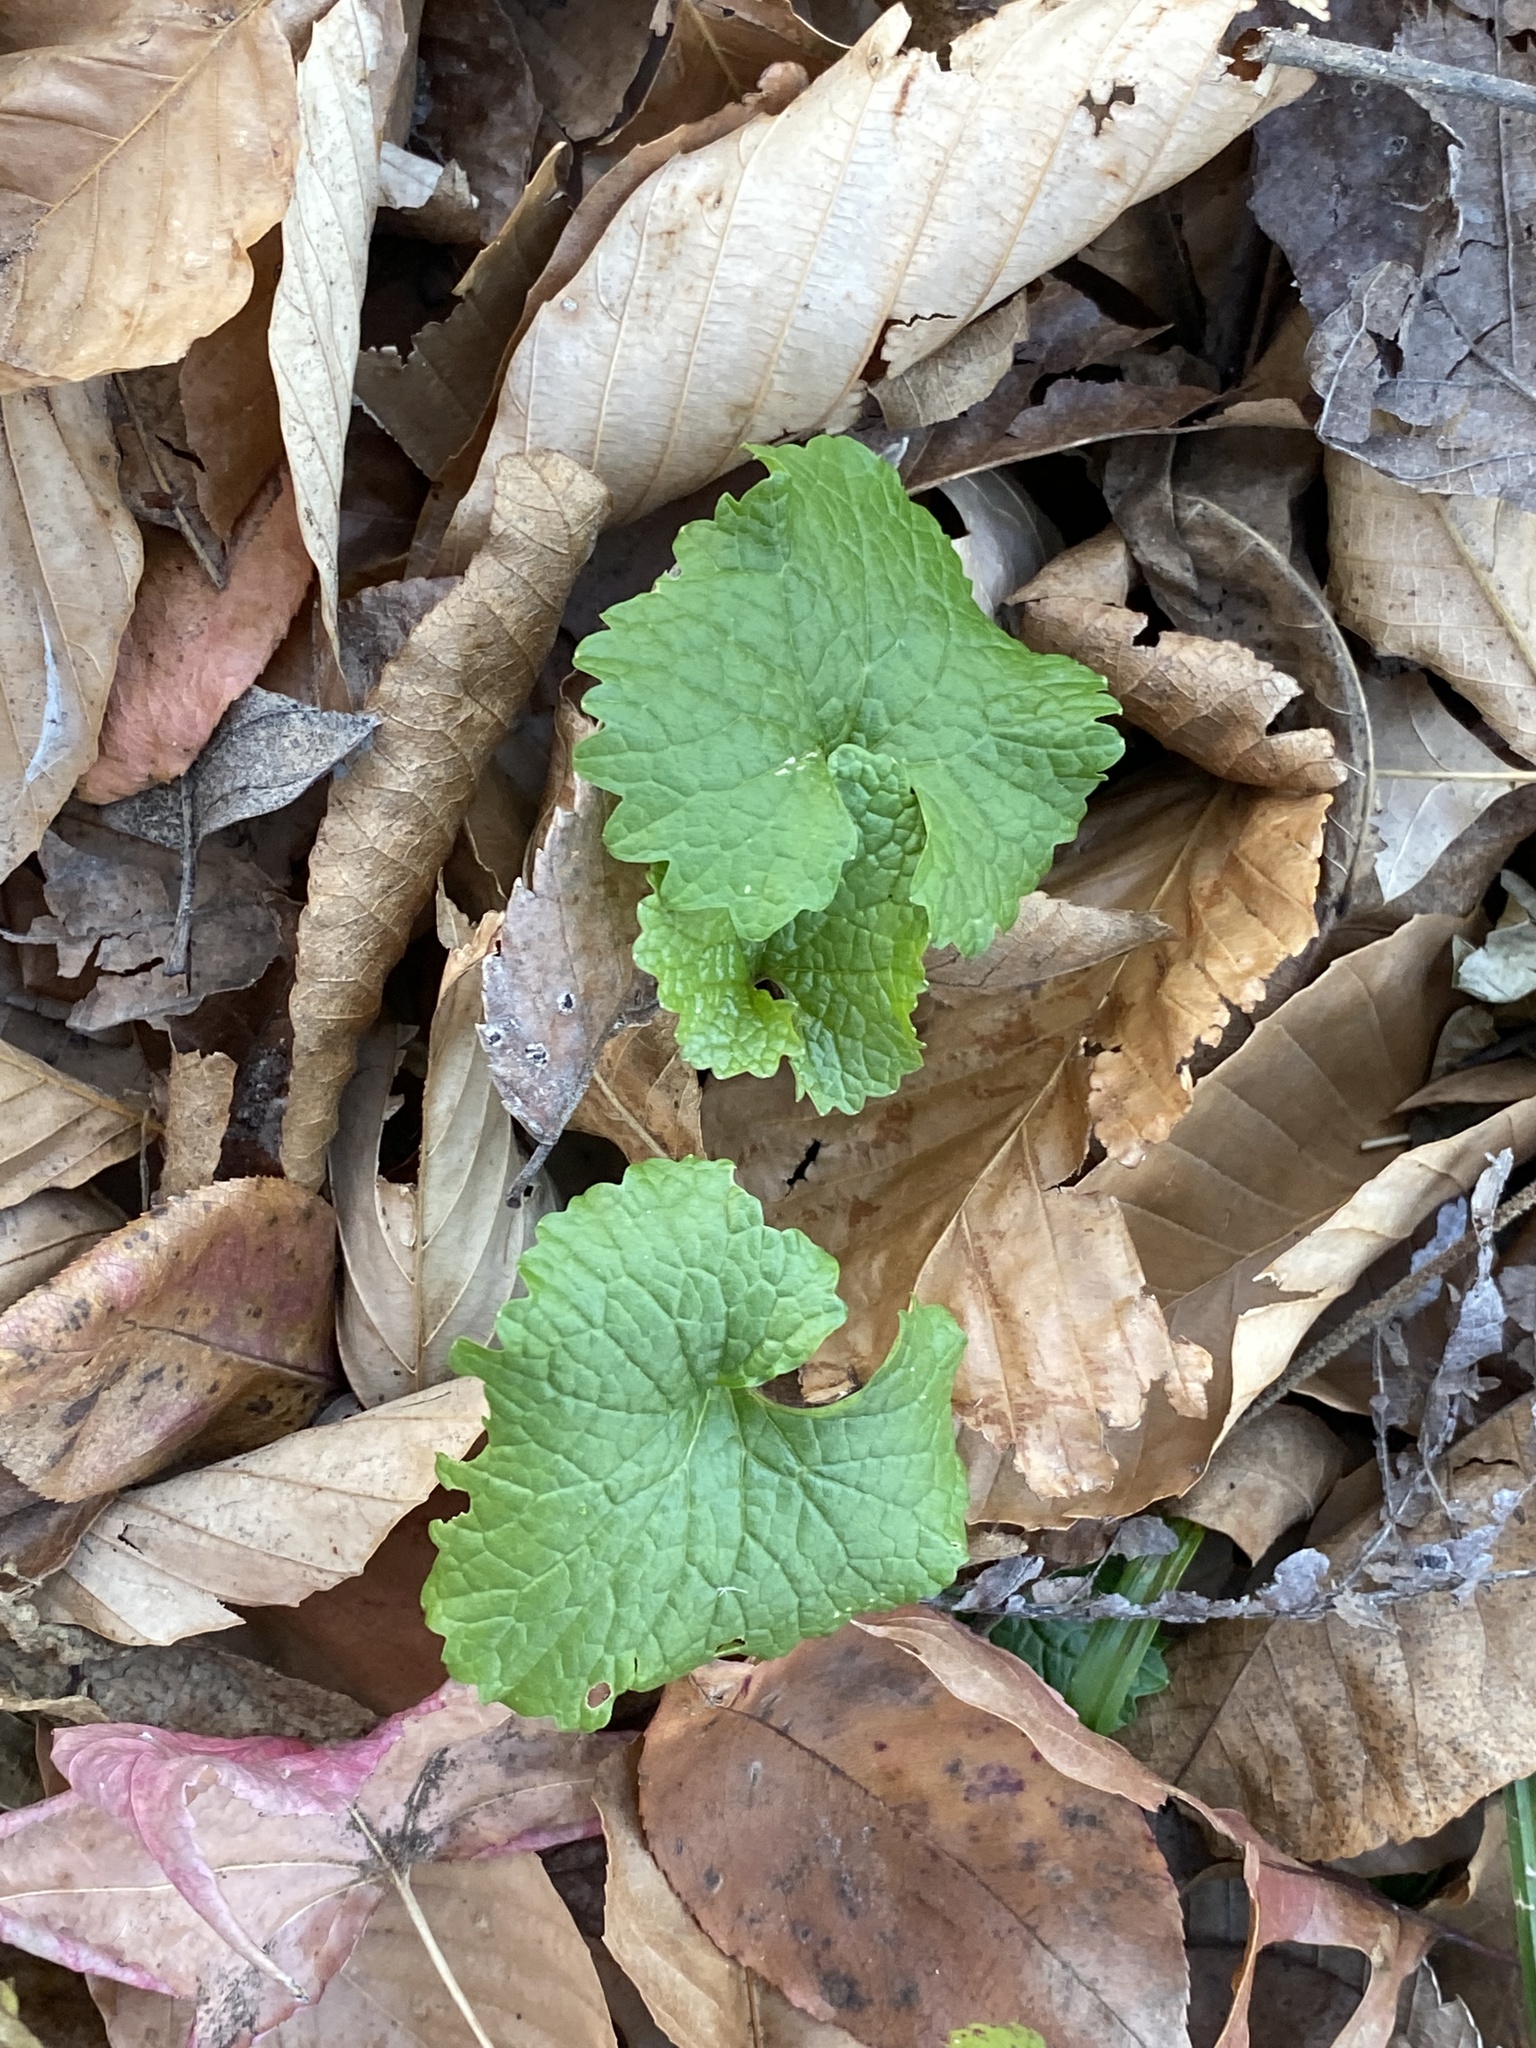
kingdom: Plantae
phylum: Tracheophyta
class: Magnoliopsida
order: Brassicales
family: Brassicaceae
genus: Alliaria
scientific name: Alliaria petiolata
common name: Garlic mustard
